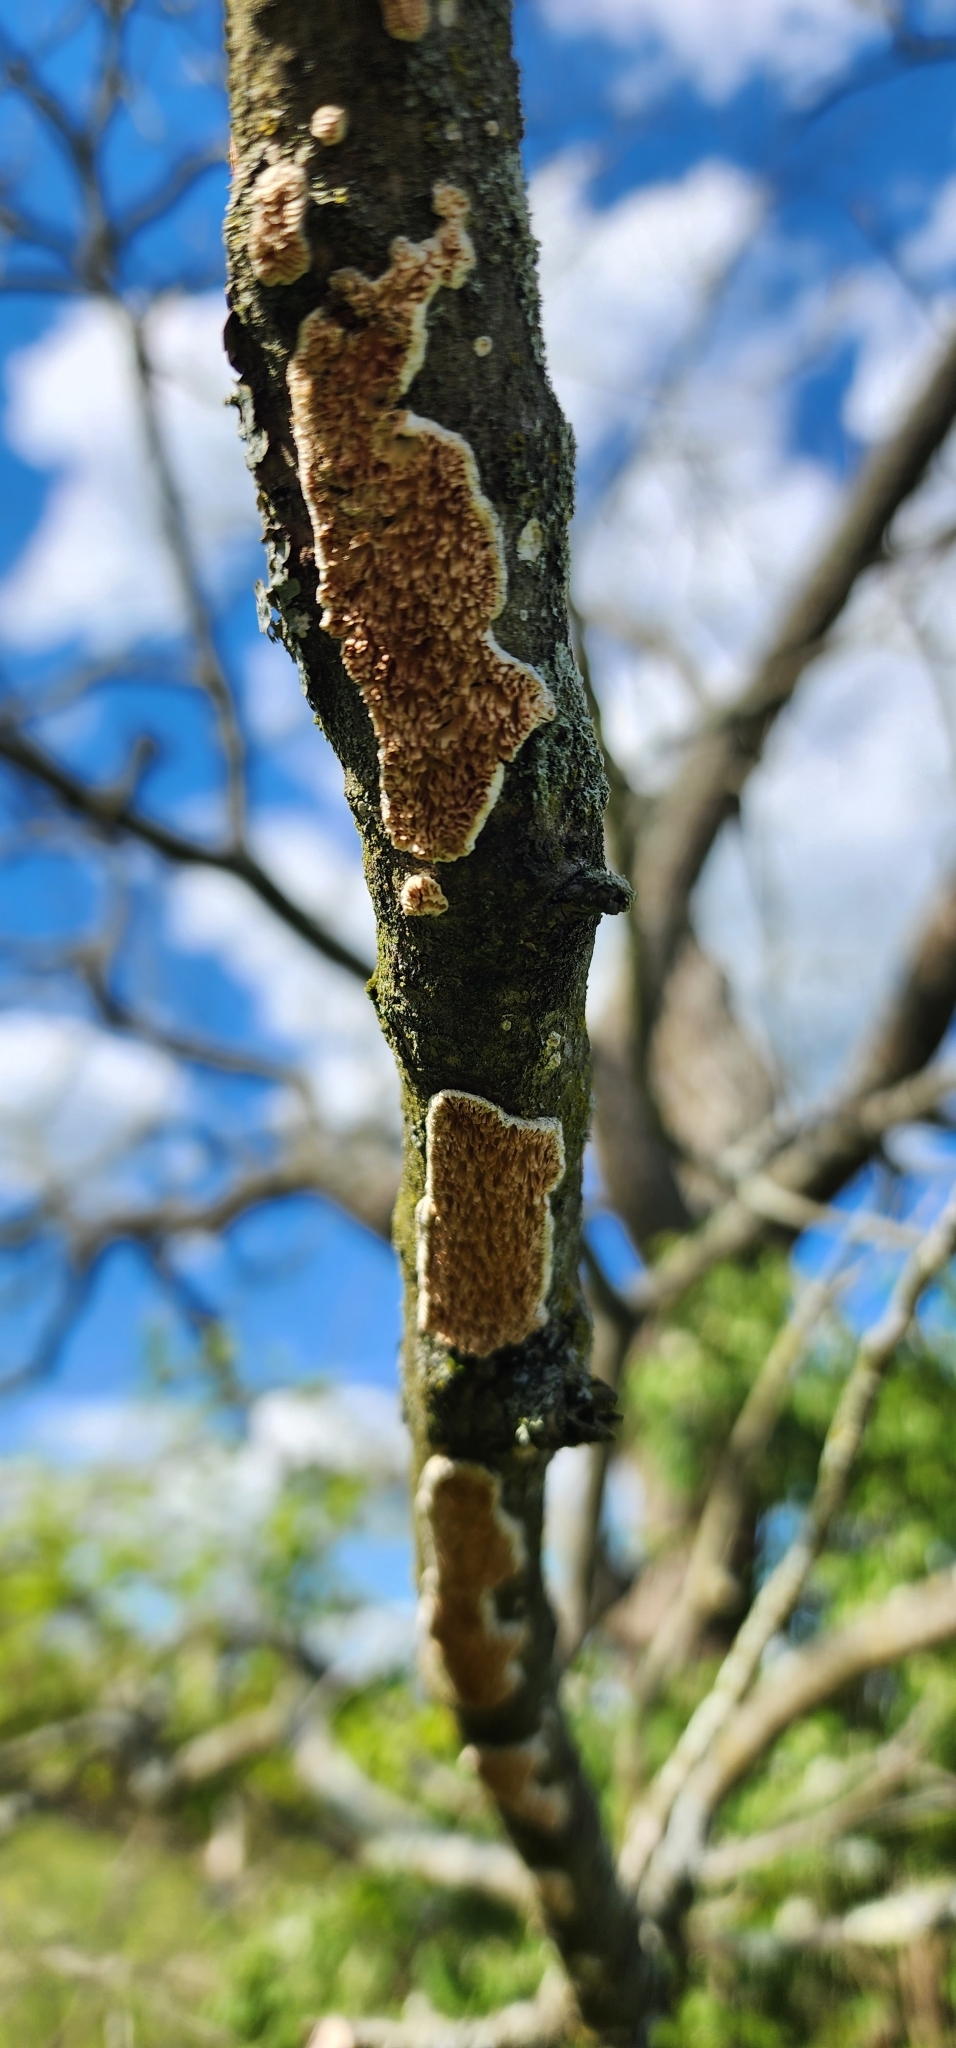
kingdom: Fungi
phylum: Basidiomycota
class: Agaricomycetes
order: Russulales
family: Peniophoraceae
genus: Peniophora
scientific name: Peniophora albobadia
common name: Giraffe spots
